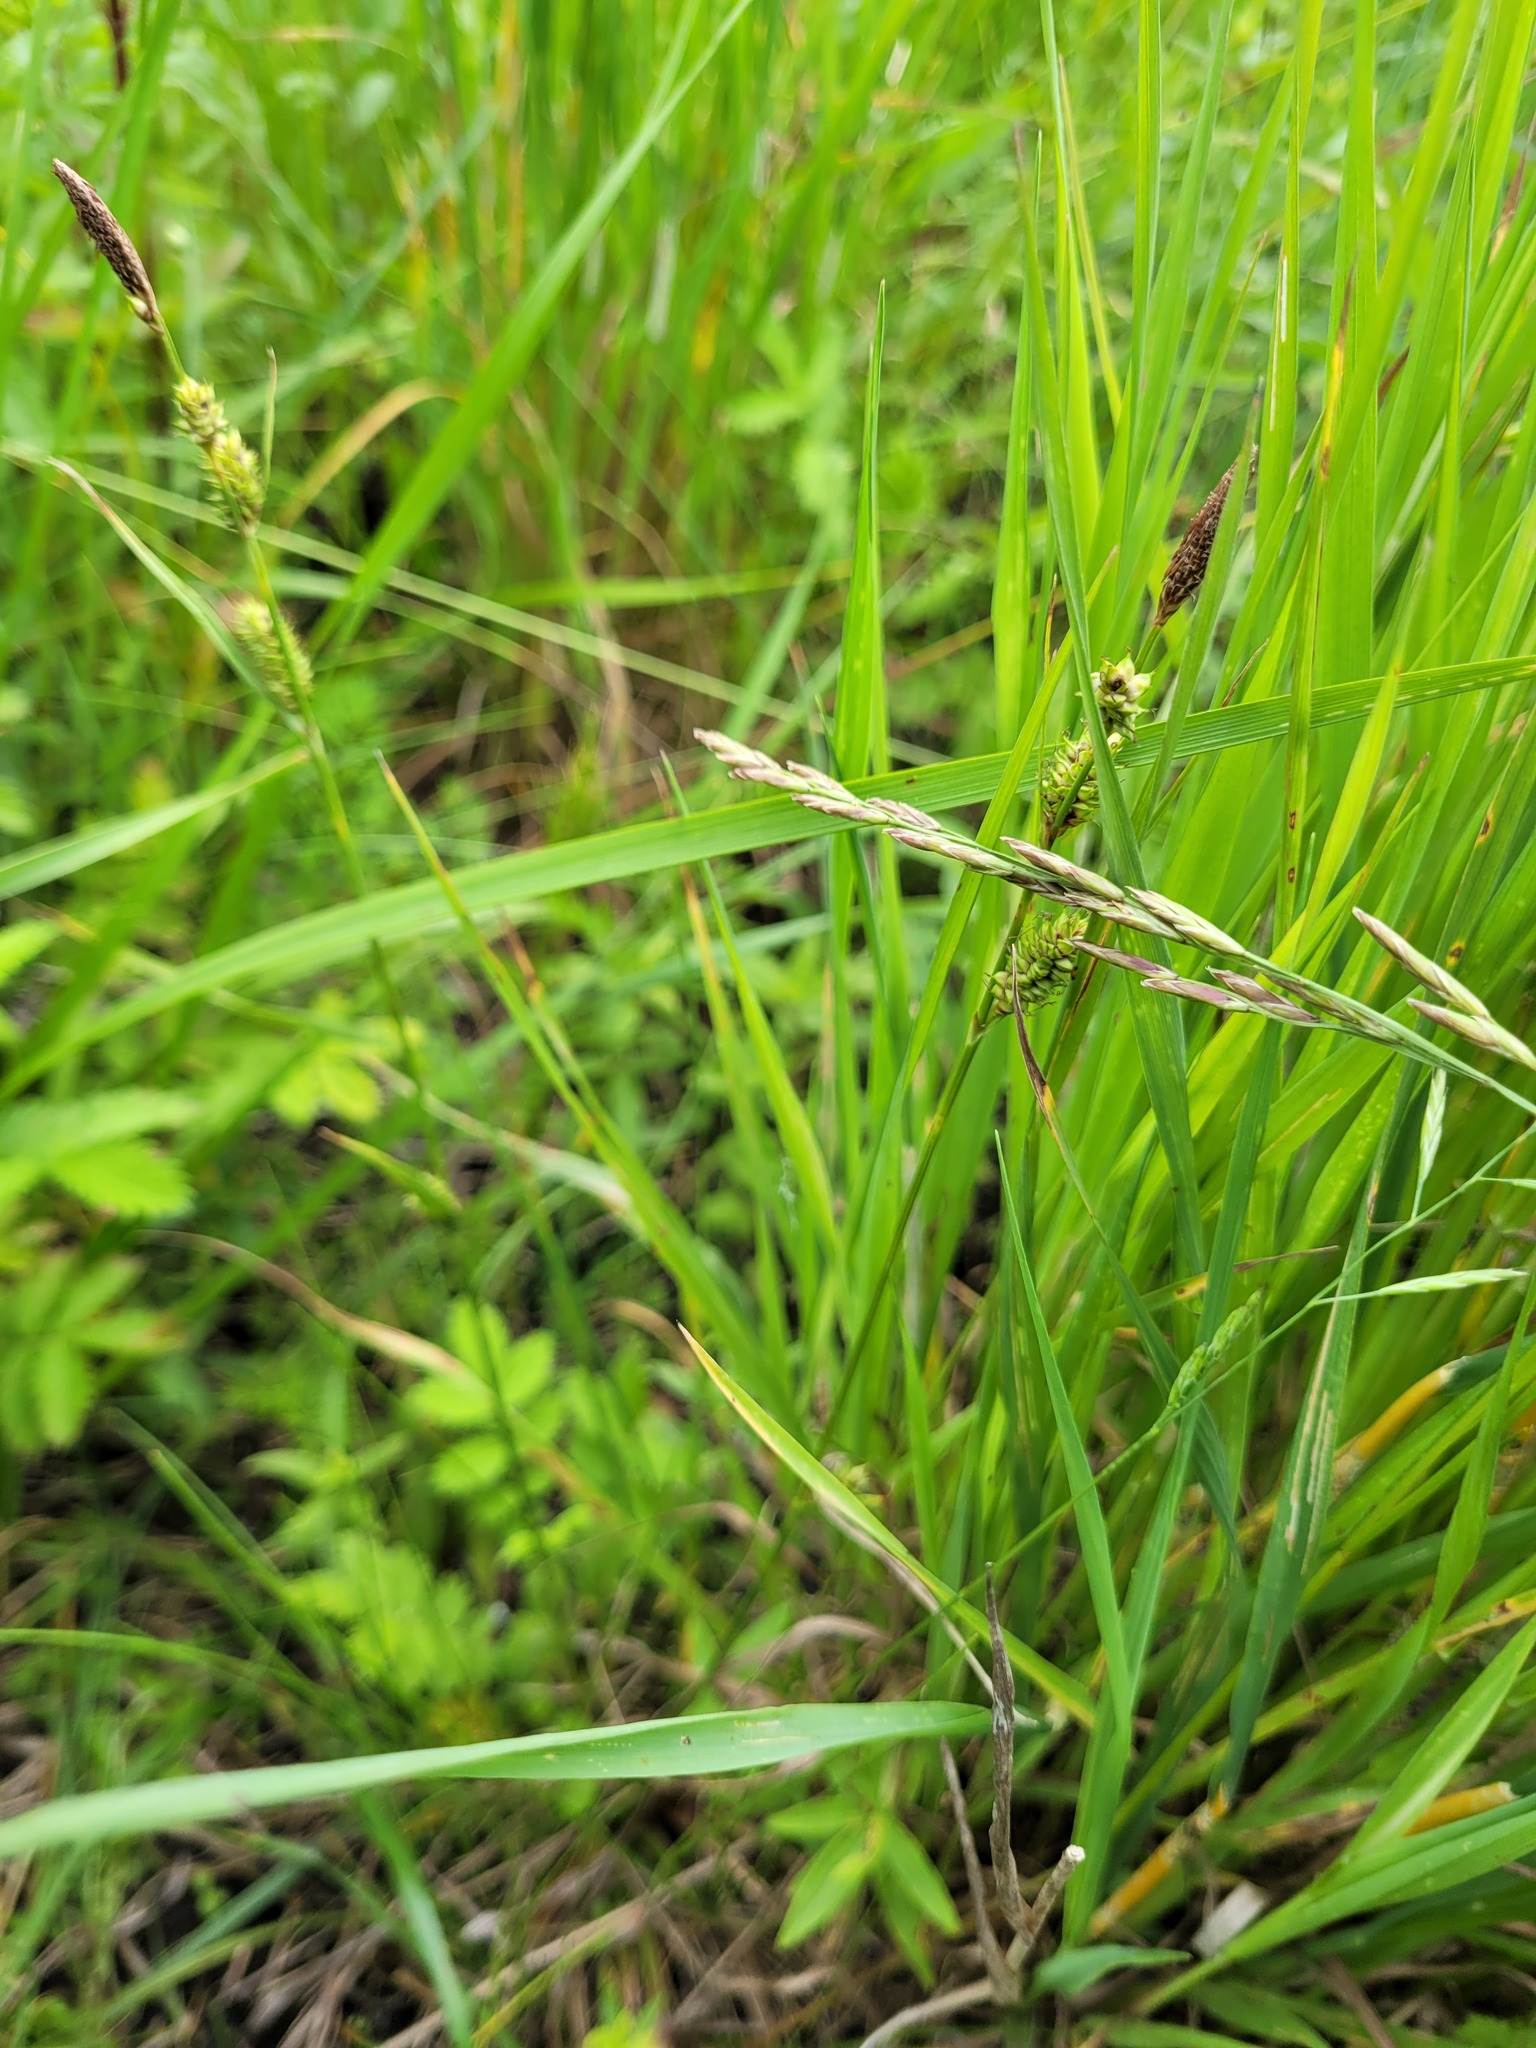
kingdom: Plantae
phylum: Tracheophyta
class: Liliopsida
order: Poales
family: Cyperaceae
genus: Carex
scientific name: Carex distans
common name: Distant sedge
